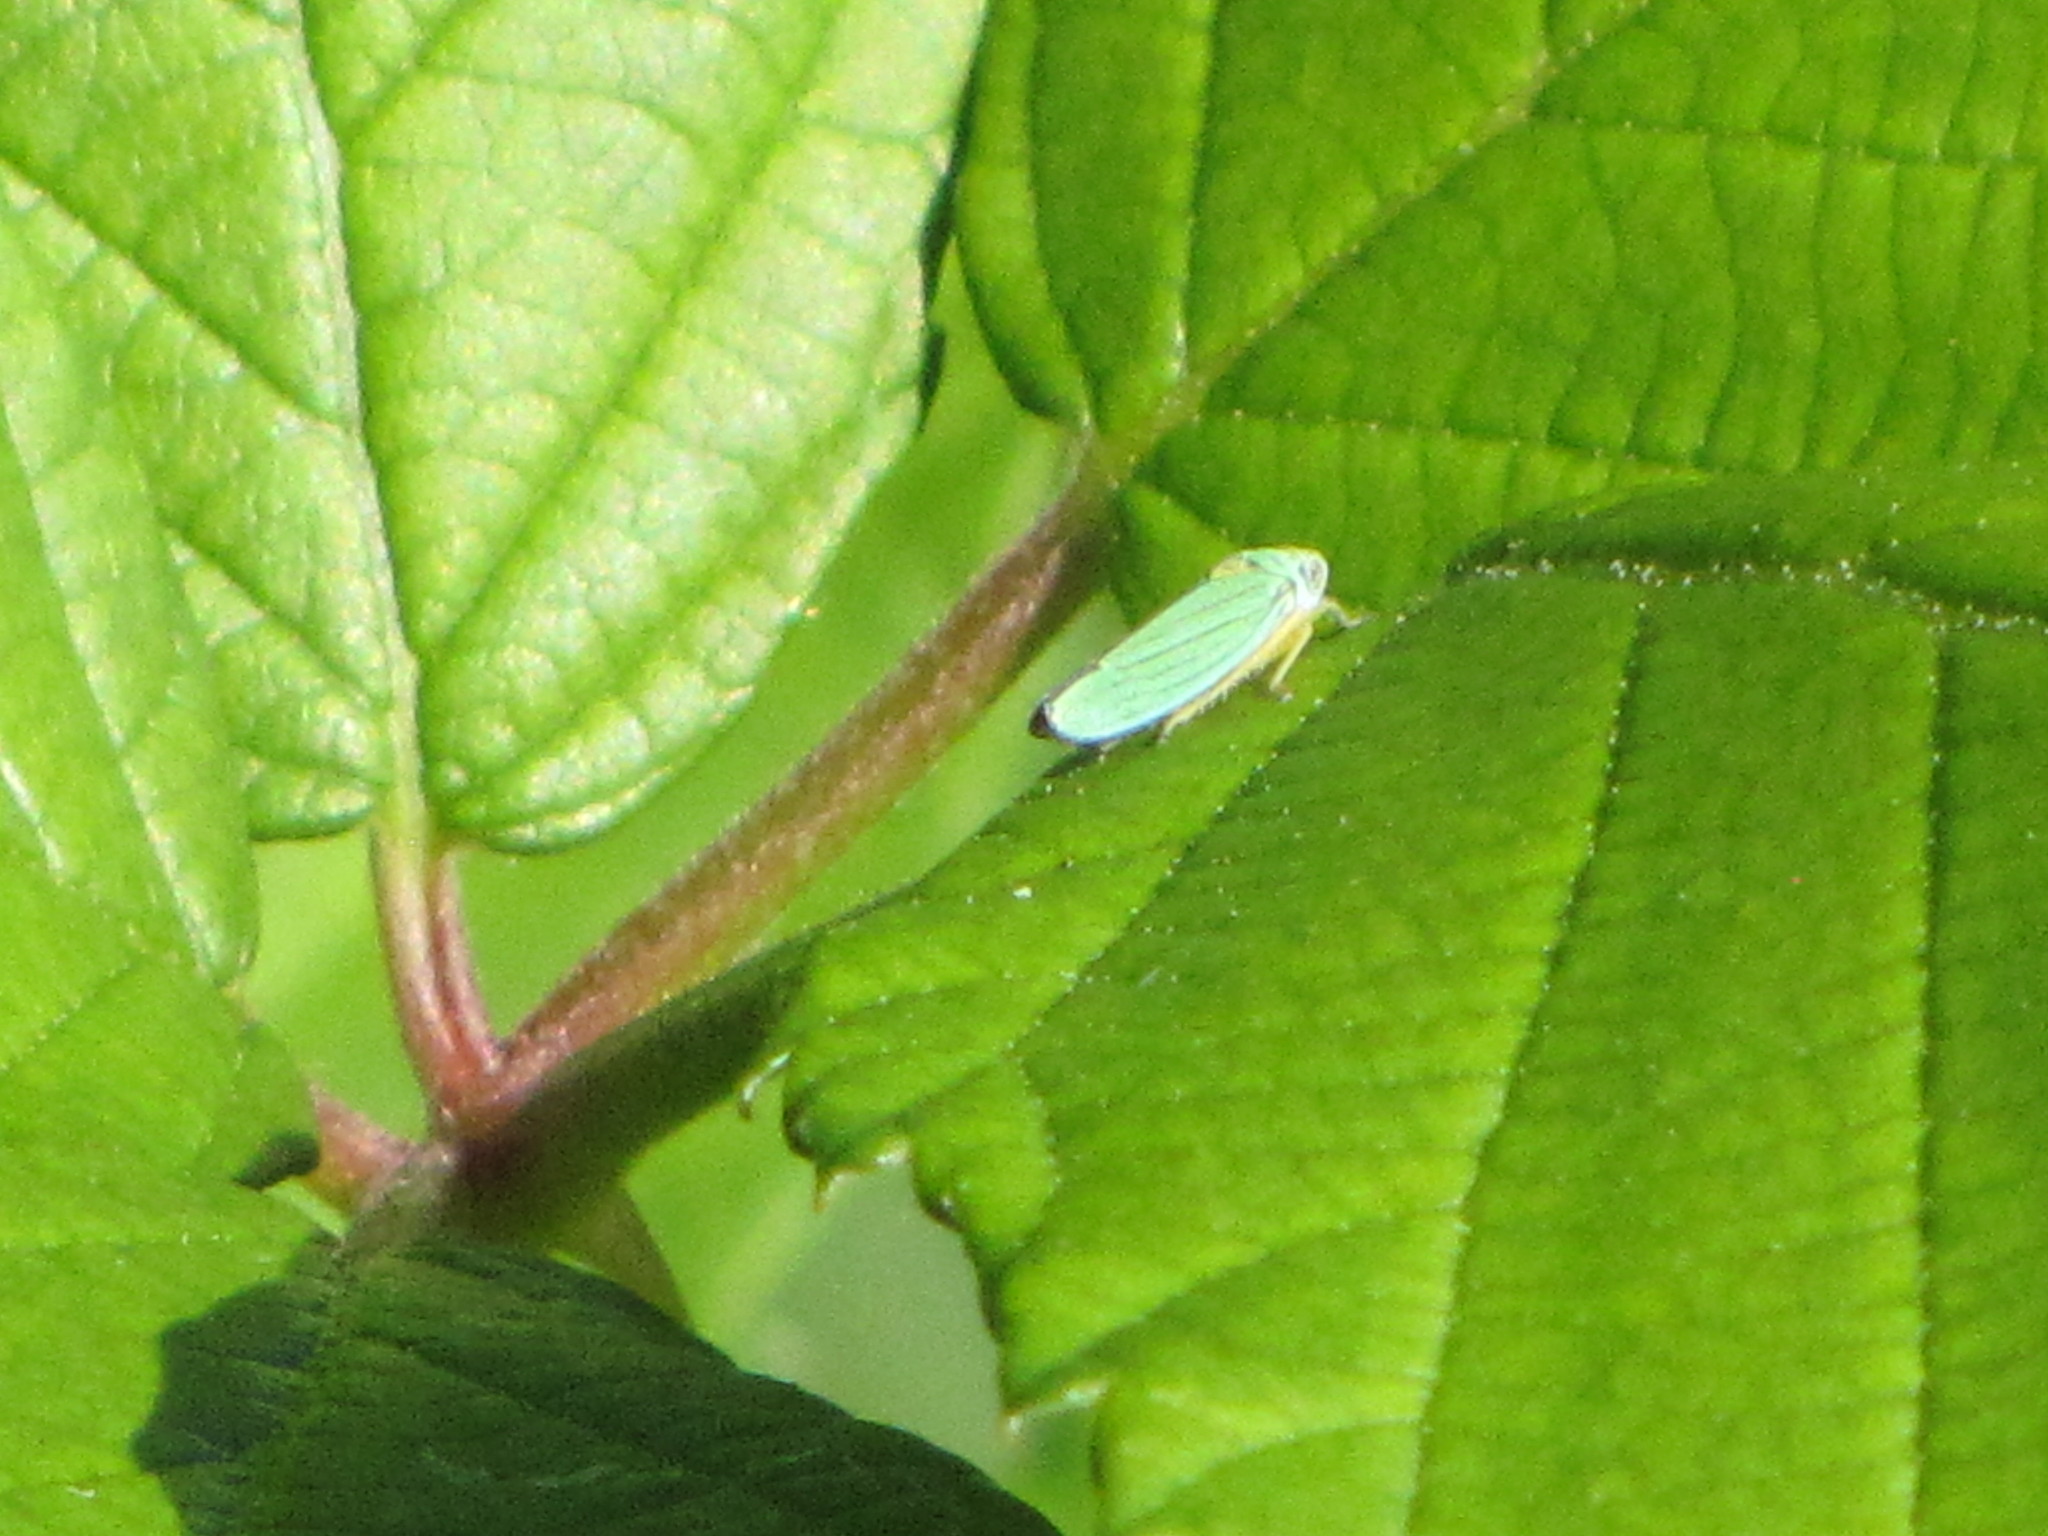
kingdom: Animalia
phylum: Arthropoda
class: Insecta
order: Hemiptera
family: Cicadellidae
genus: Graphocephala
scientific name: Graphocephala atropunctata
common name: Blue-green sharpshooter
